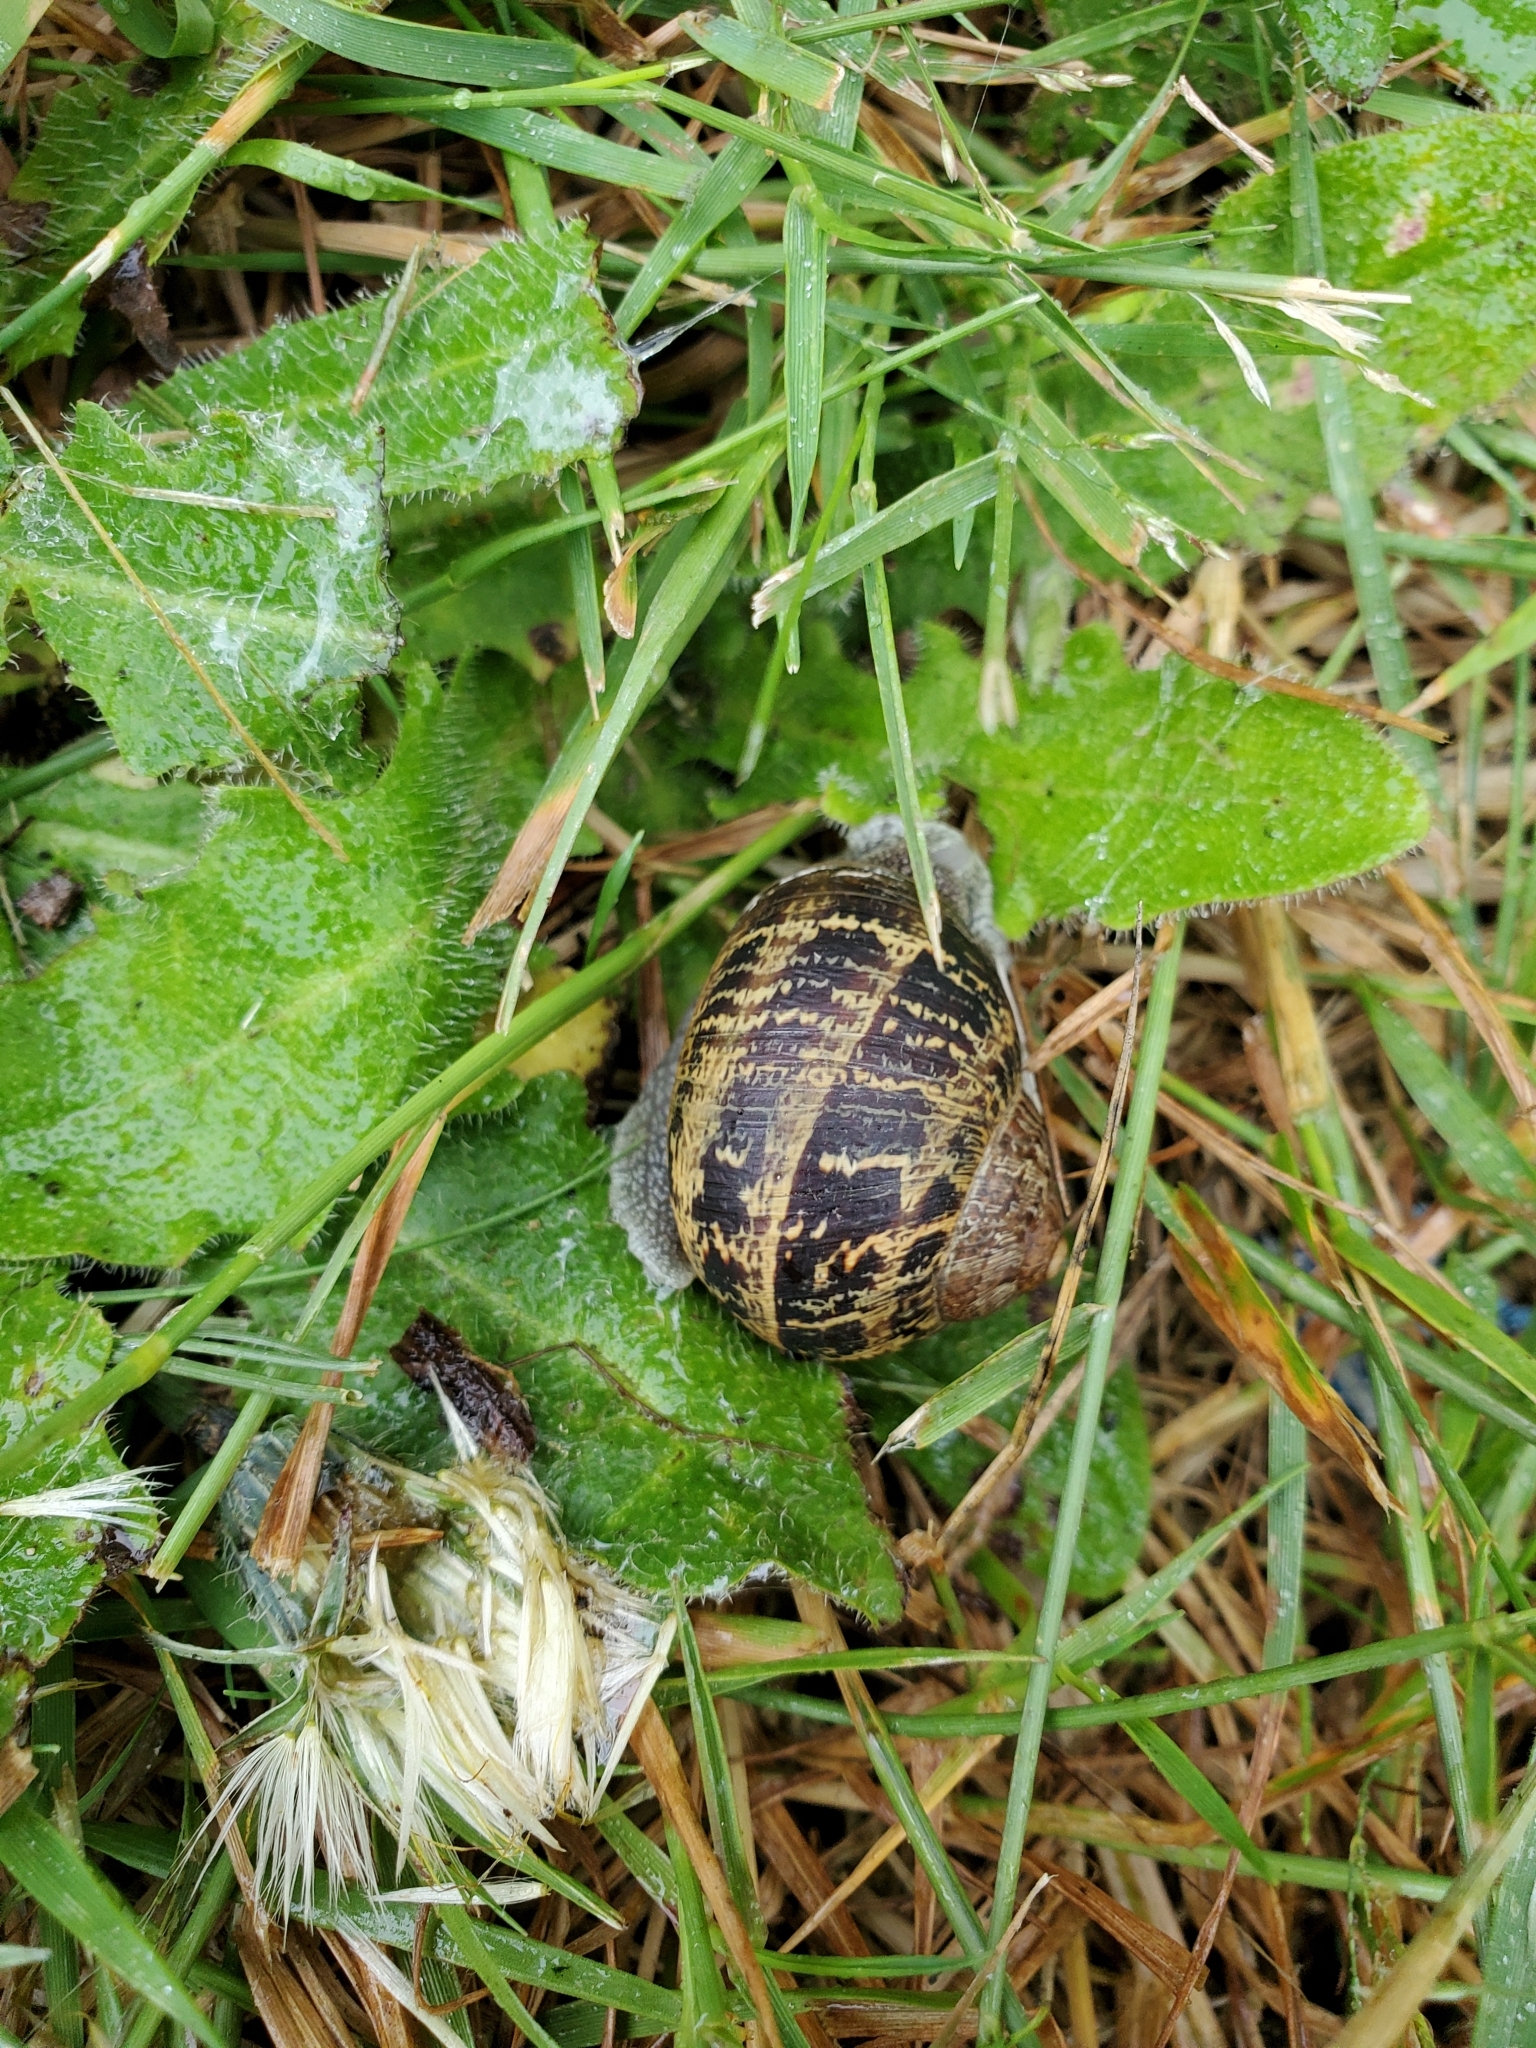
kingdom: Animalia
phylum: Mollusca
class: Gastropoda
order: Stylommatophora
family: Helicidae
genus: Cornu
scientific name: Cornu aspersum
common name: Brown garden snail
